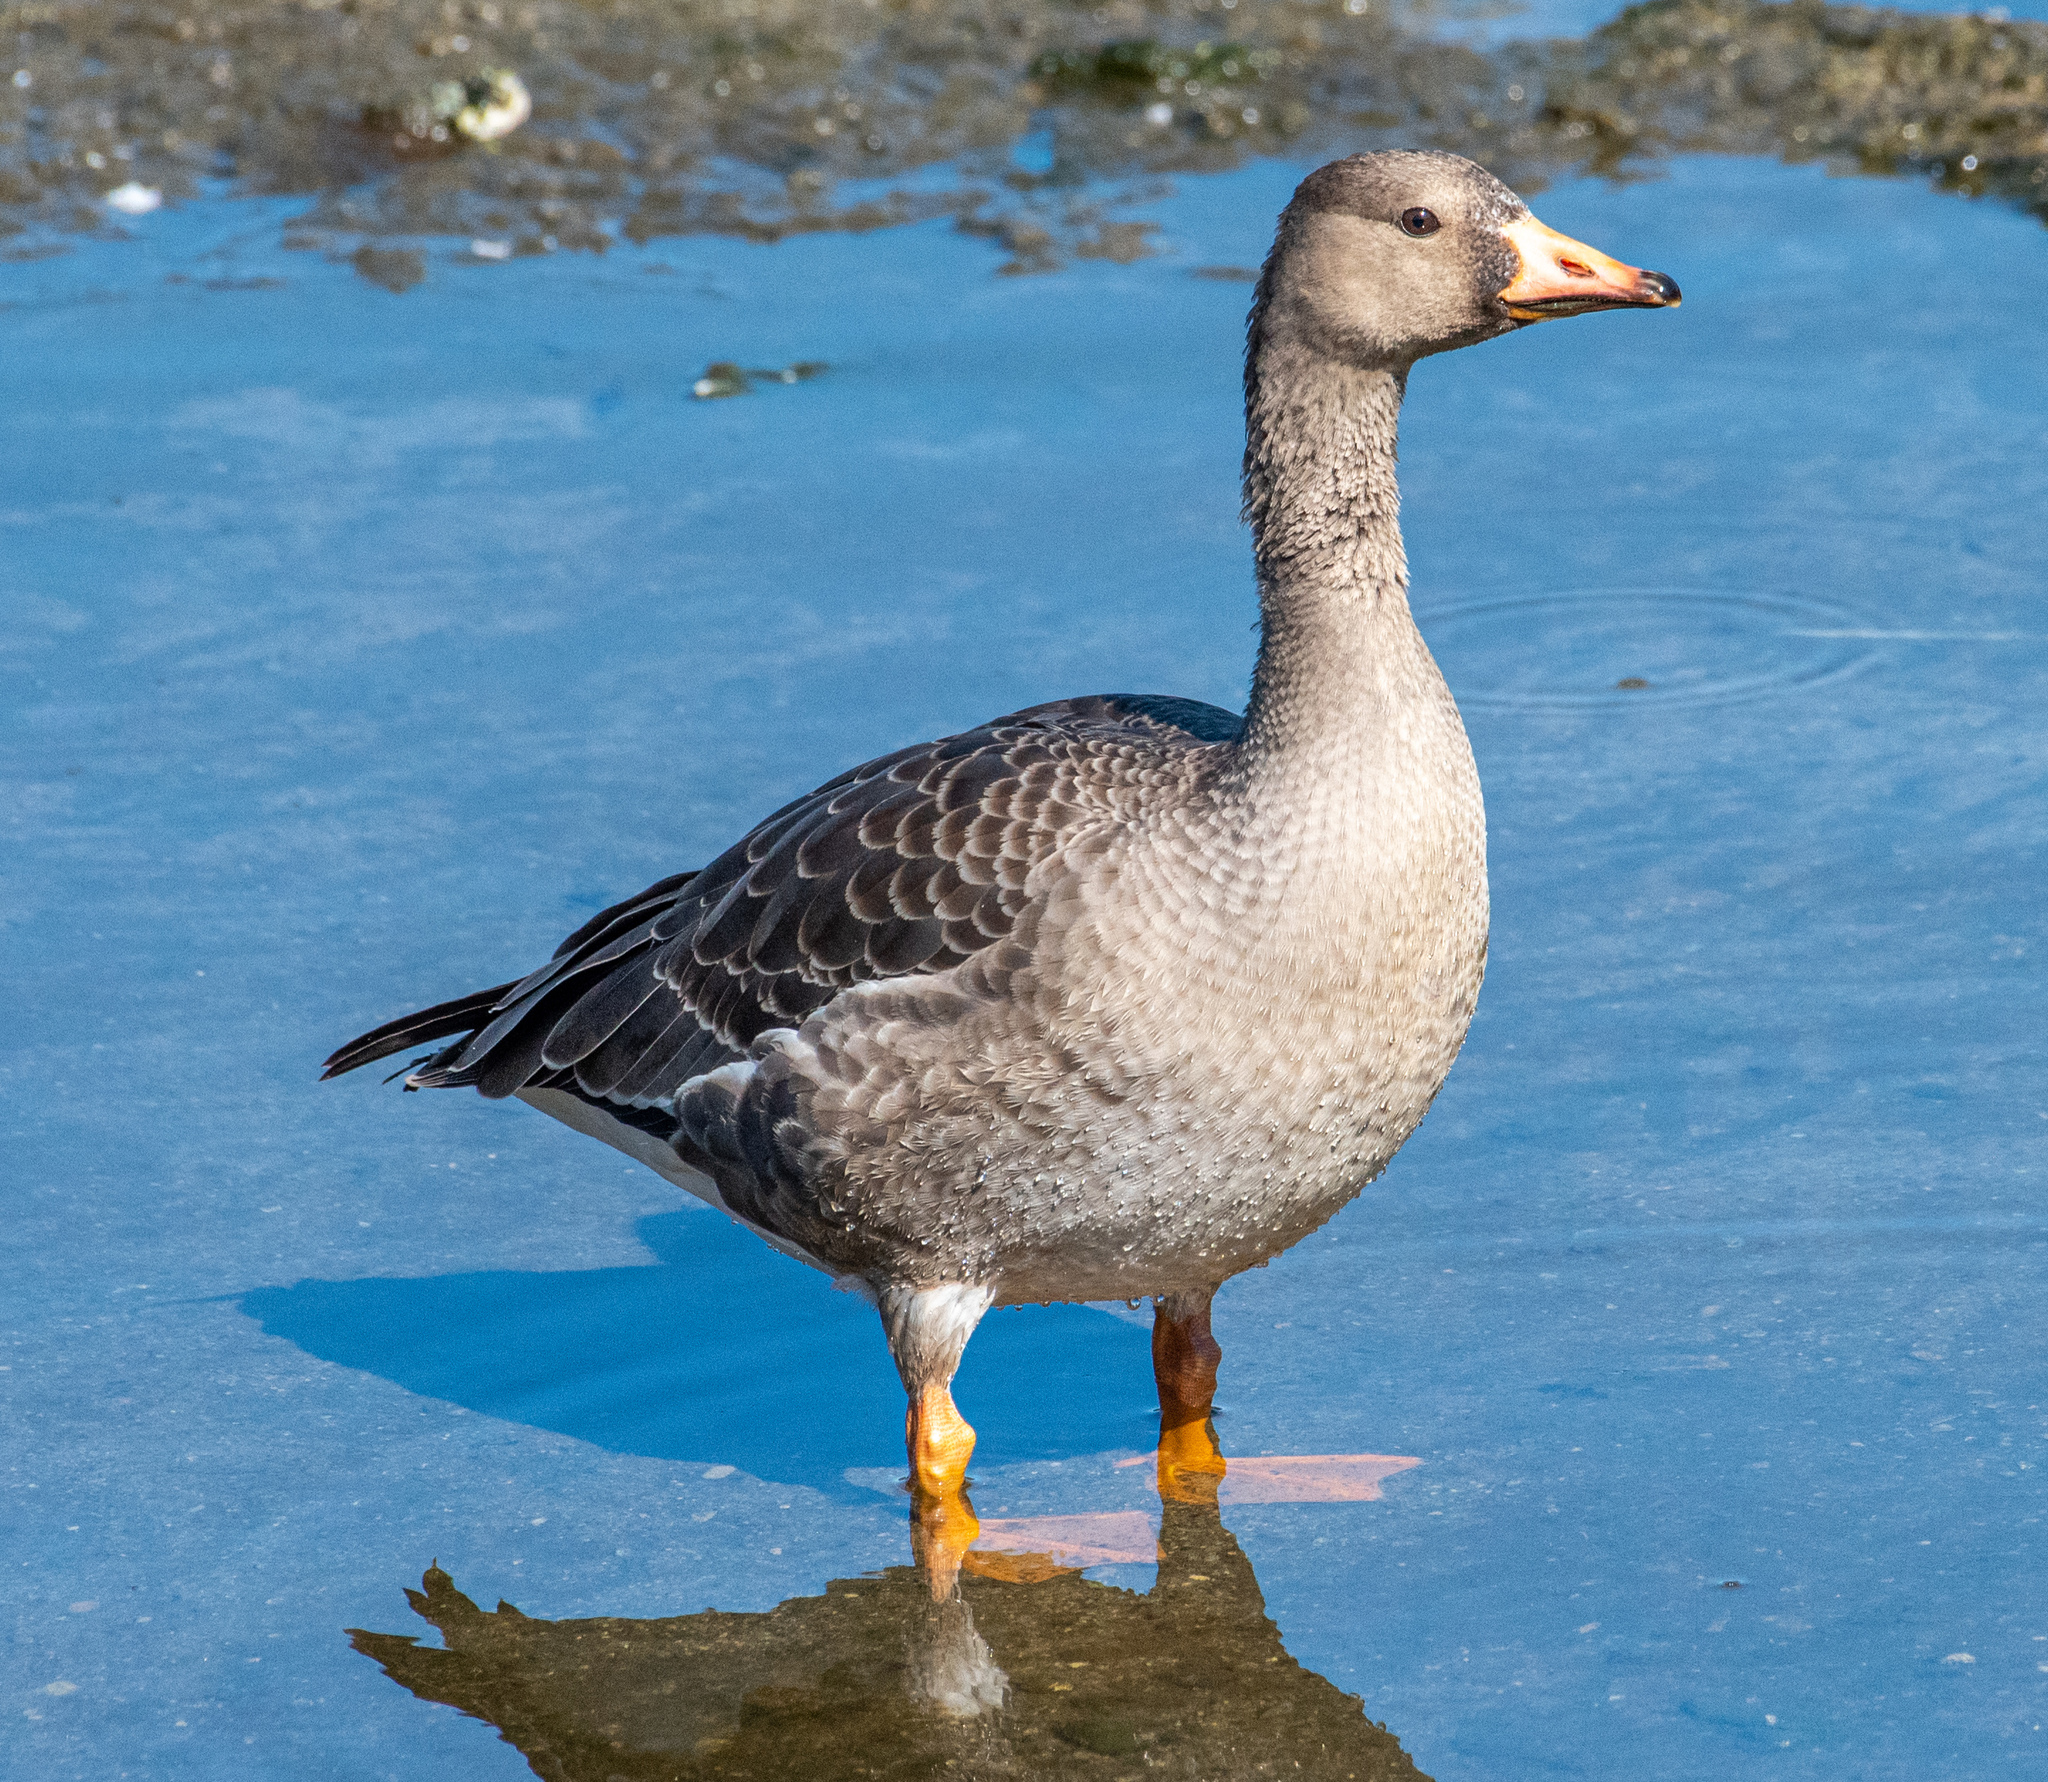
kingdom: Animalia
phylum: Chordata
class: Aves
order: Anseriformes
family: Anatidae
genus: Anser
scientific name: Anser albifrons
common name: Greater white-fronted goose
